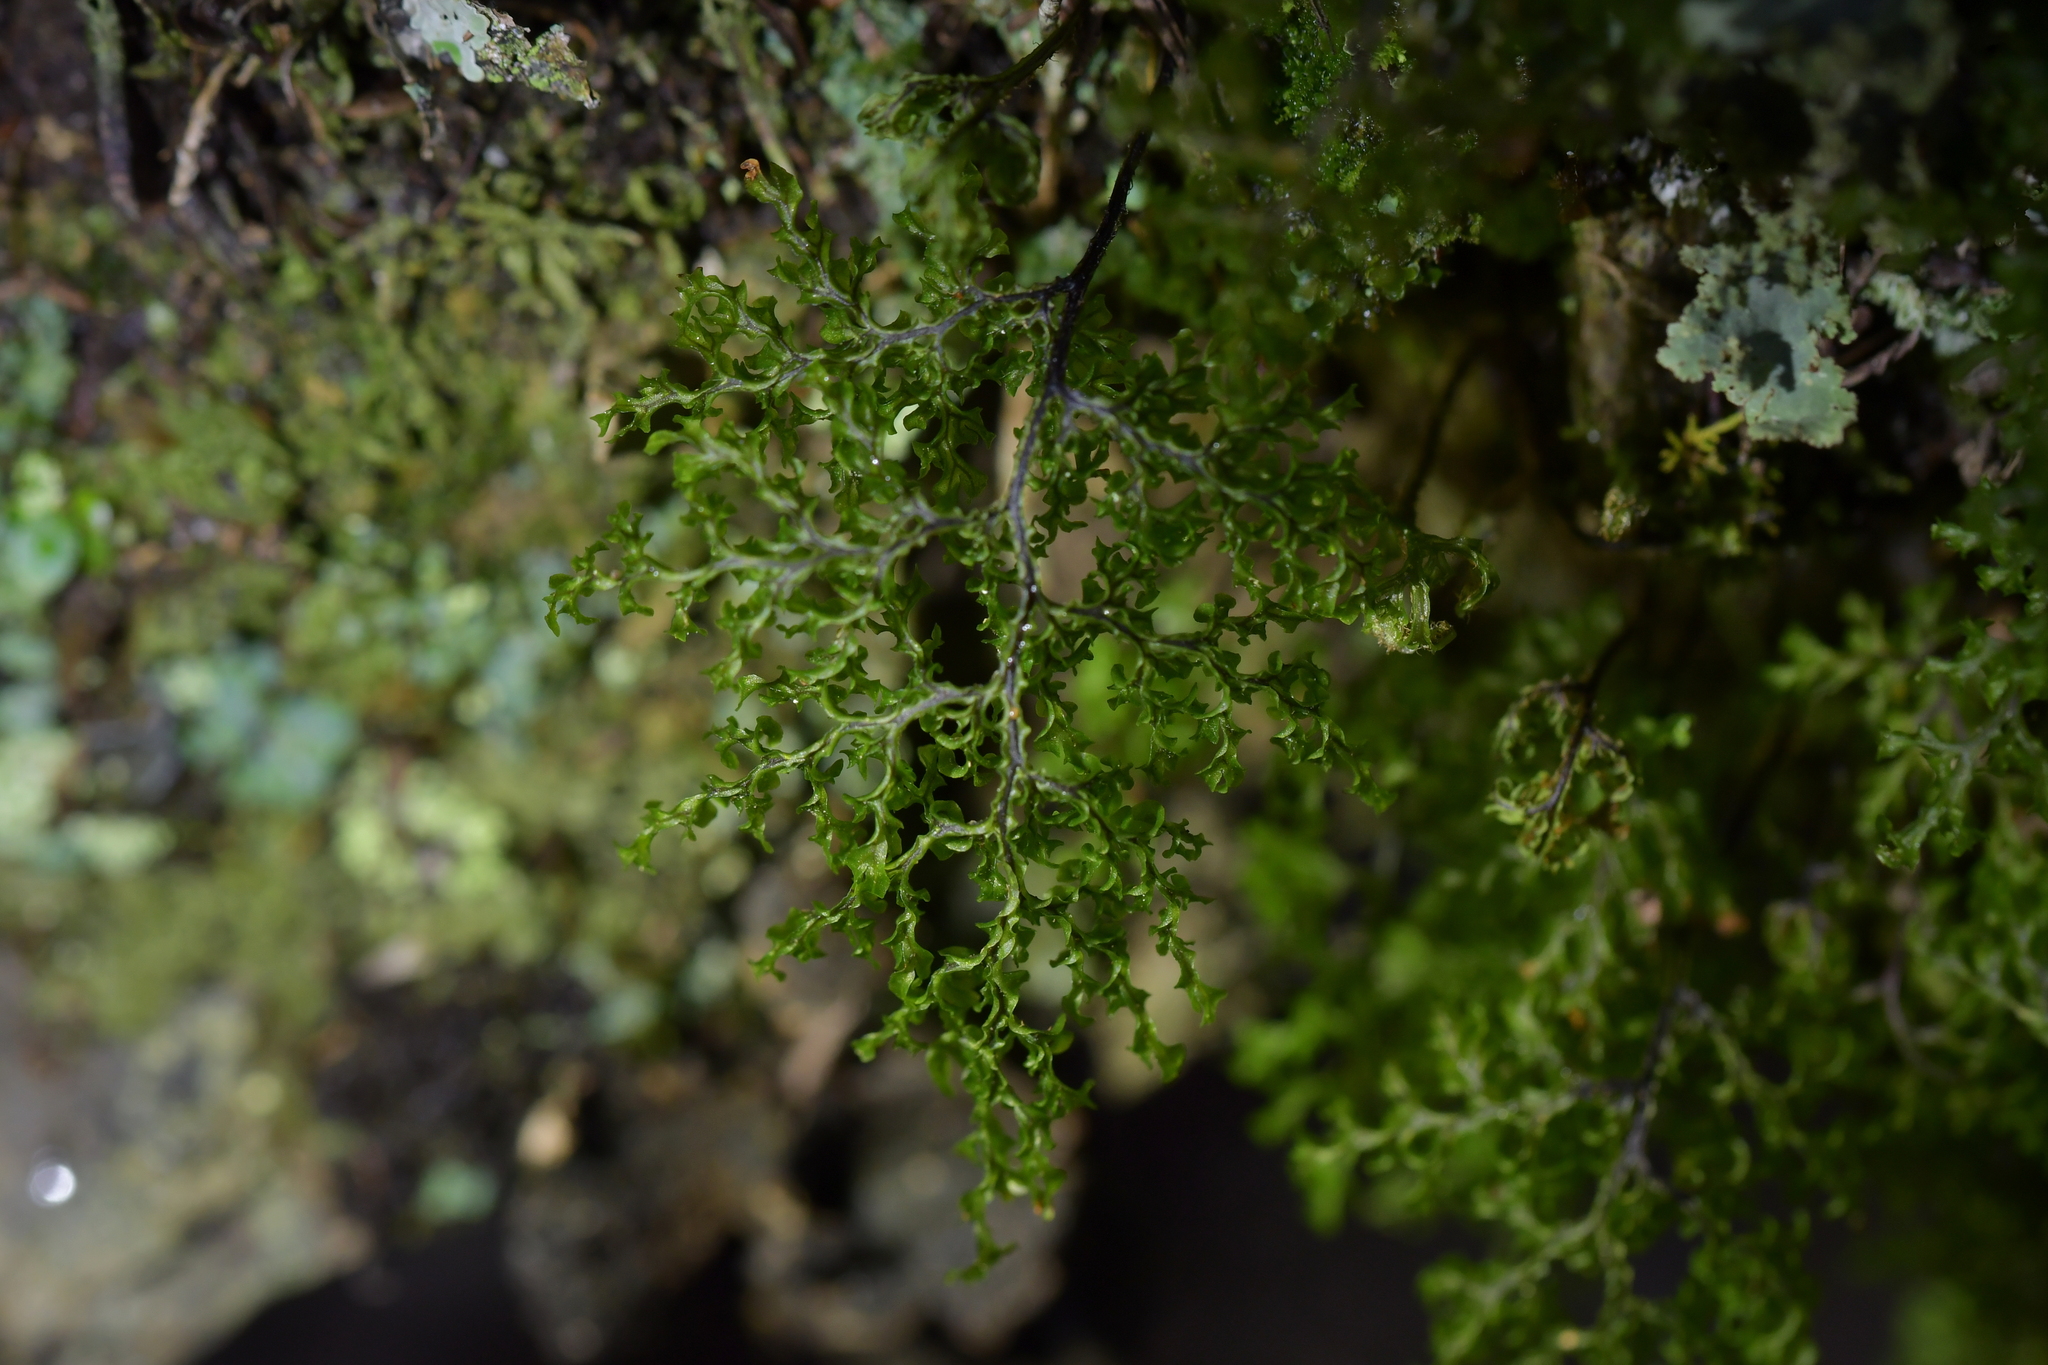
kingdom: Plantae
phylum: Tracheophyta
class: Polypodiopsida
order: Hymenophyllales
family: Hymenophyllaceae
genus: Hymenophyllum
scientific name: Hymenophyllum flexuosum
